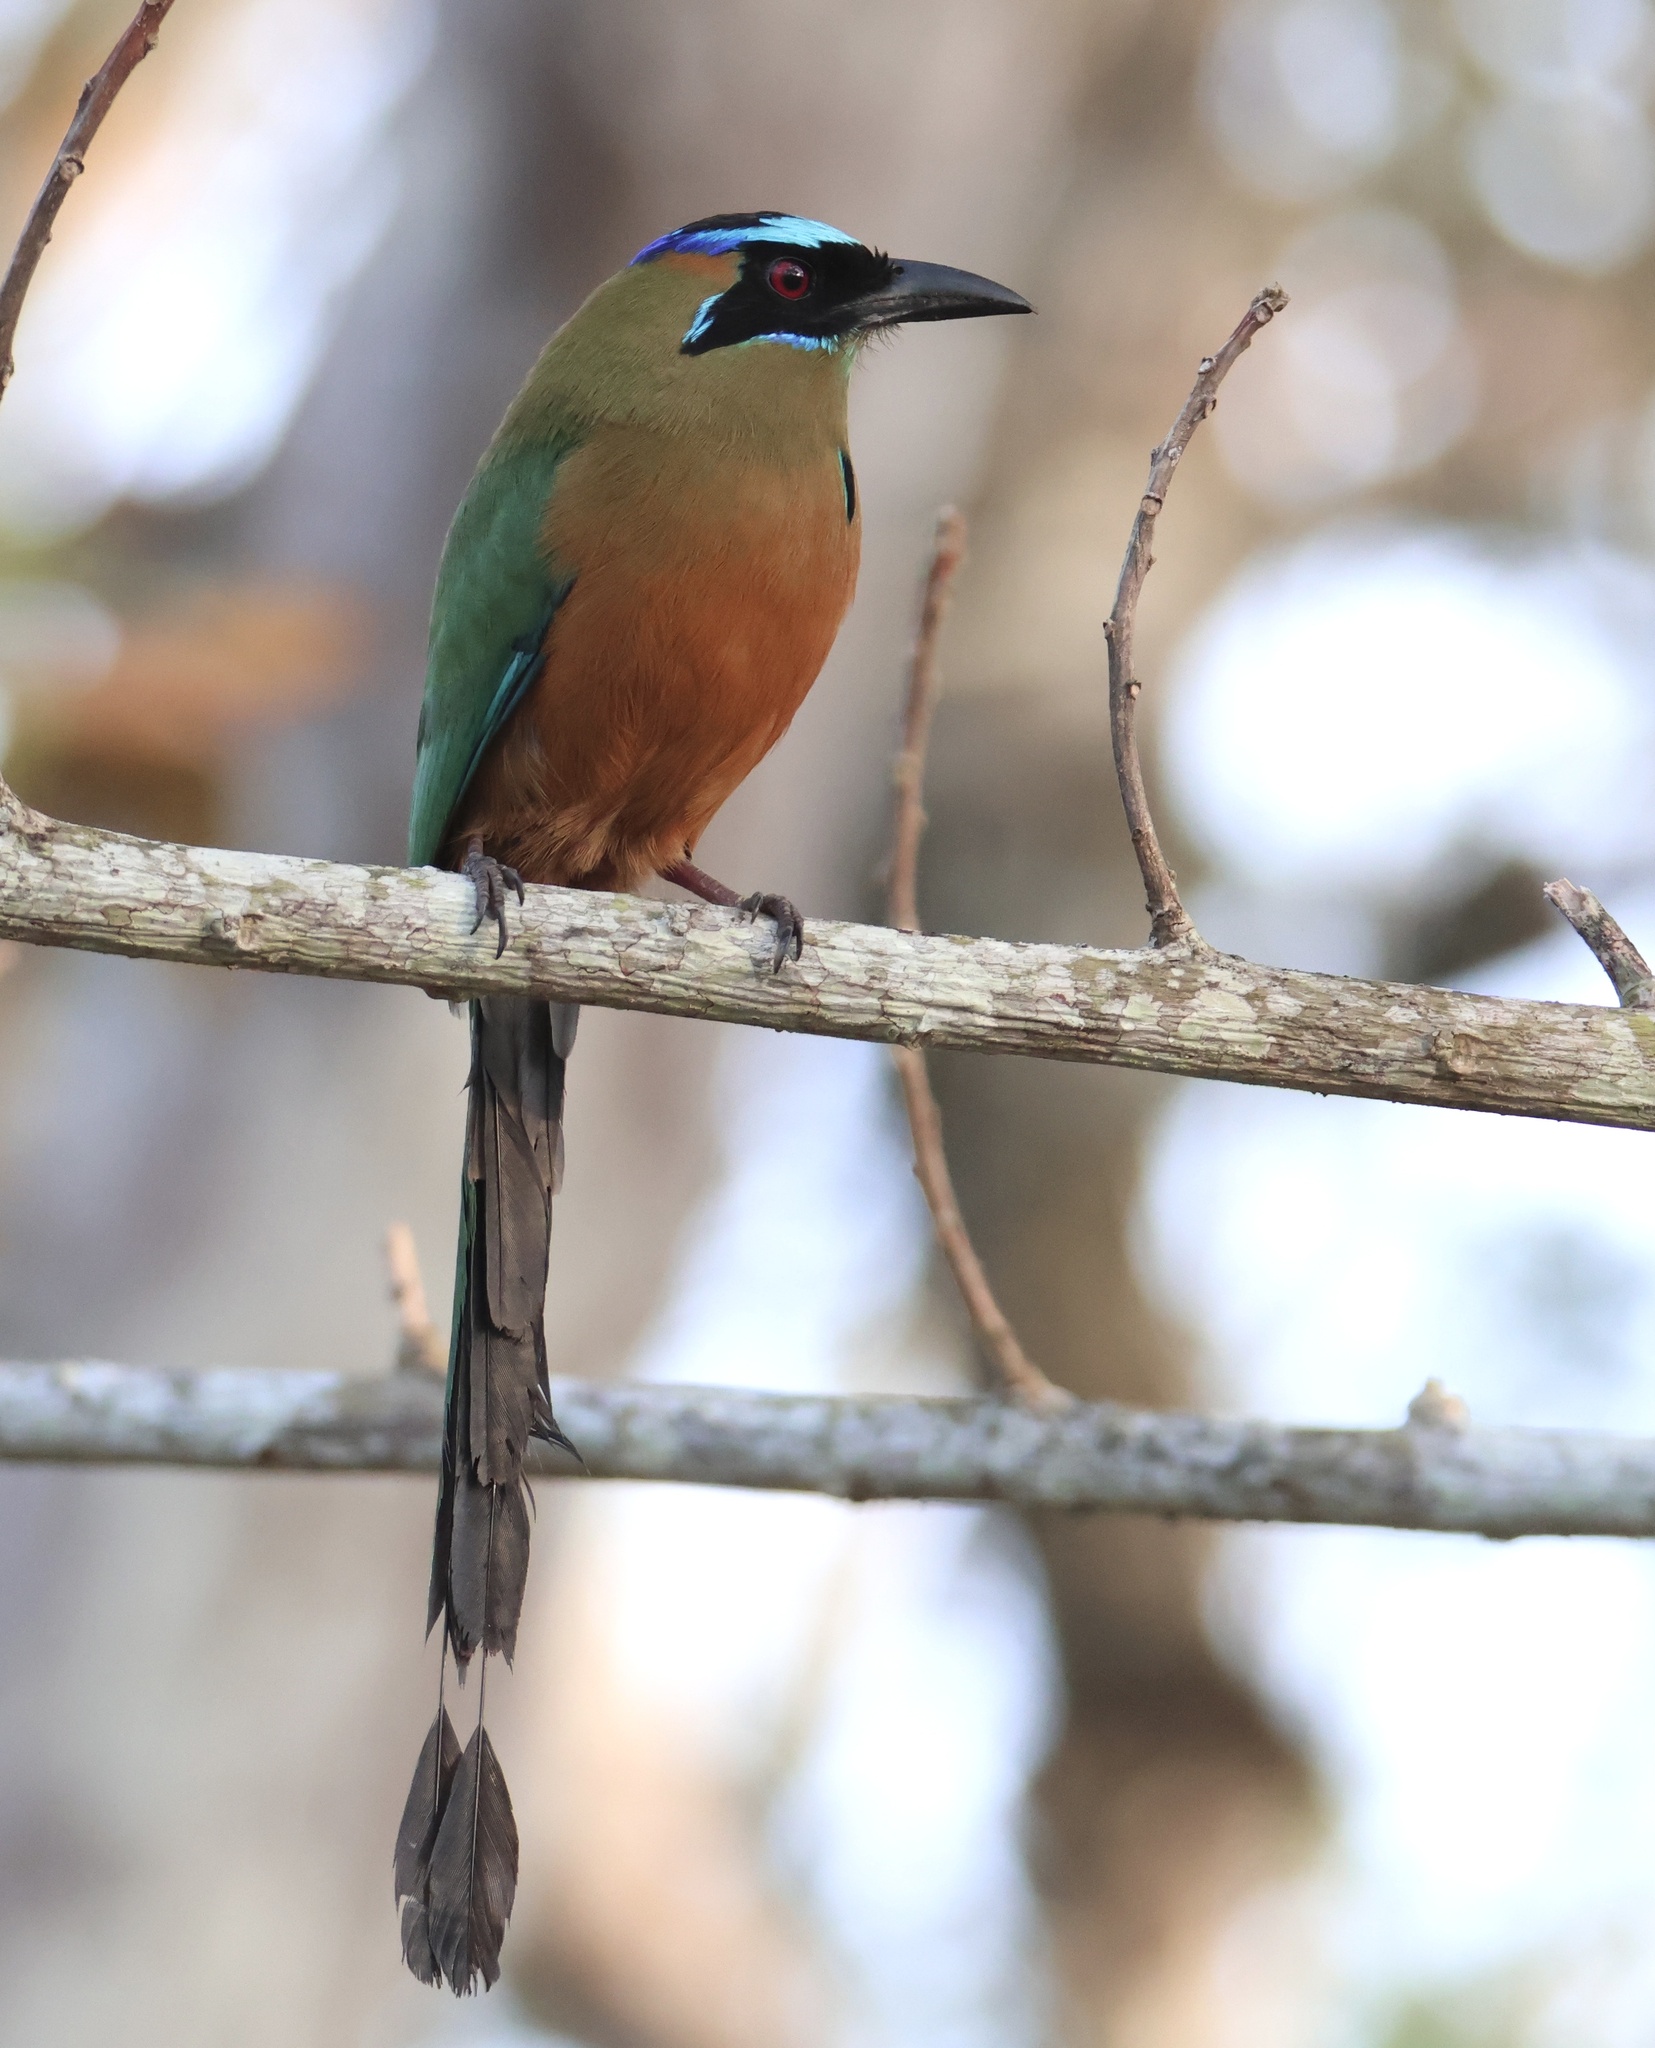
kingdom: Animalia
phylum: Chordata
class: Aves
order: Coraciiformes
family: Momotidae
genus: Momotus
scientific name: Momotus subrufescens
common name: Whooping motmot
